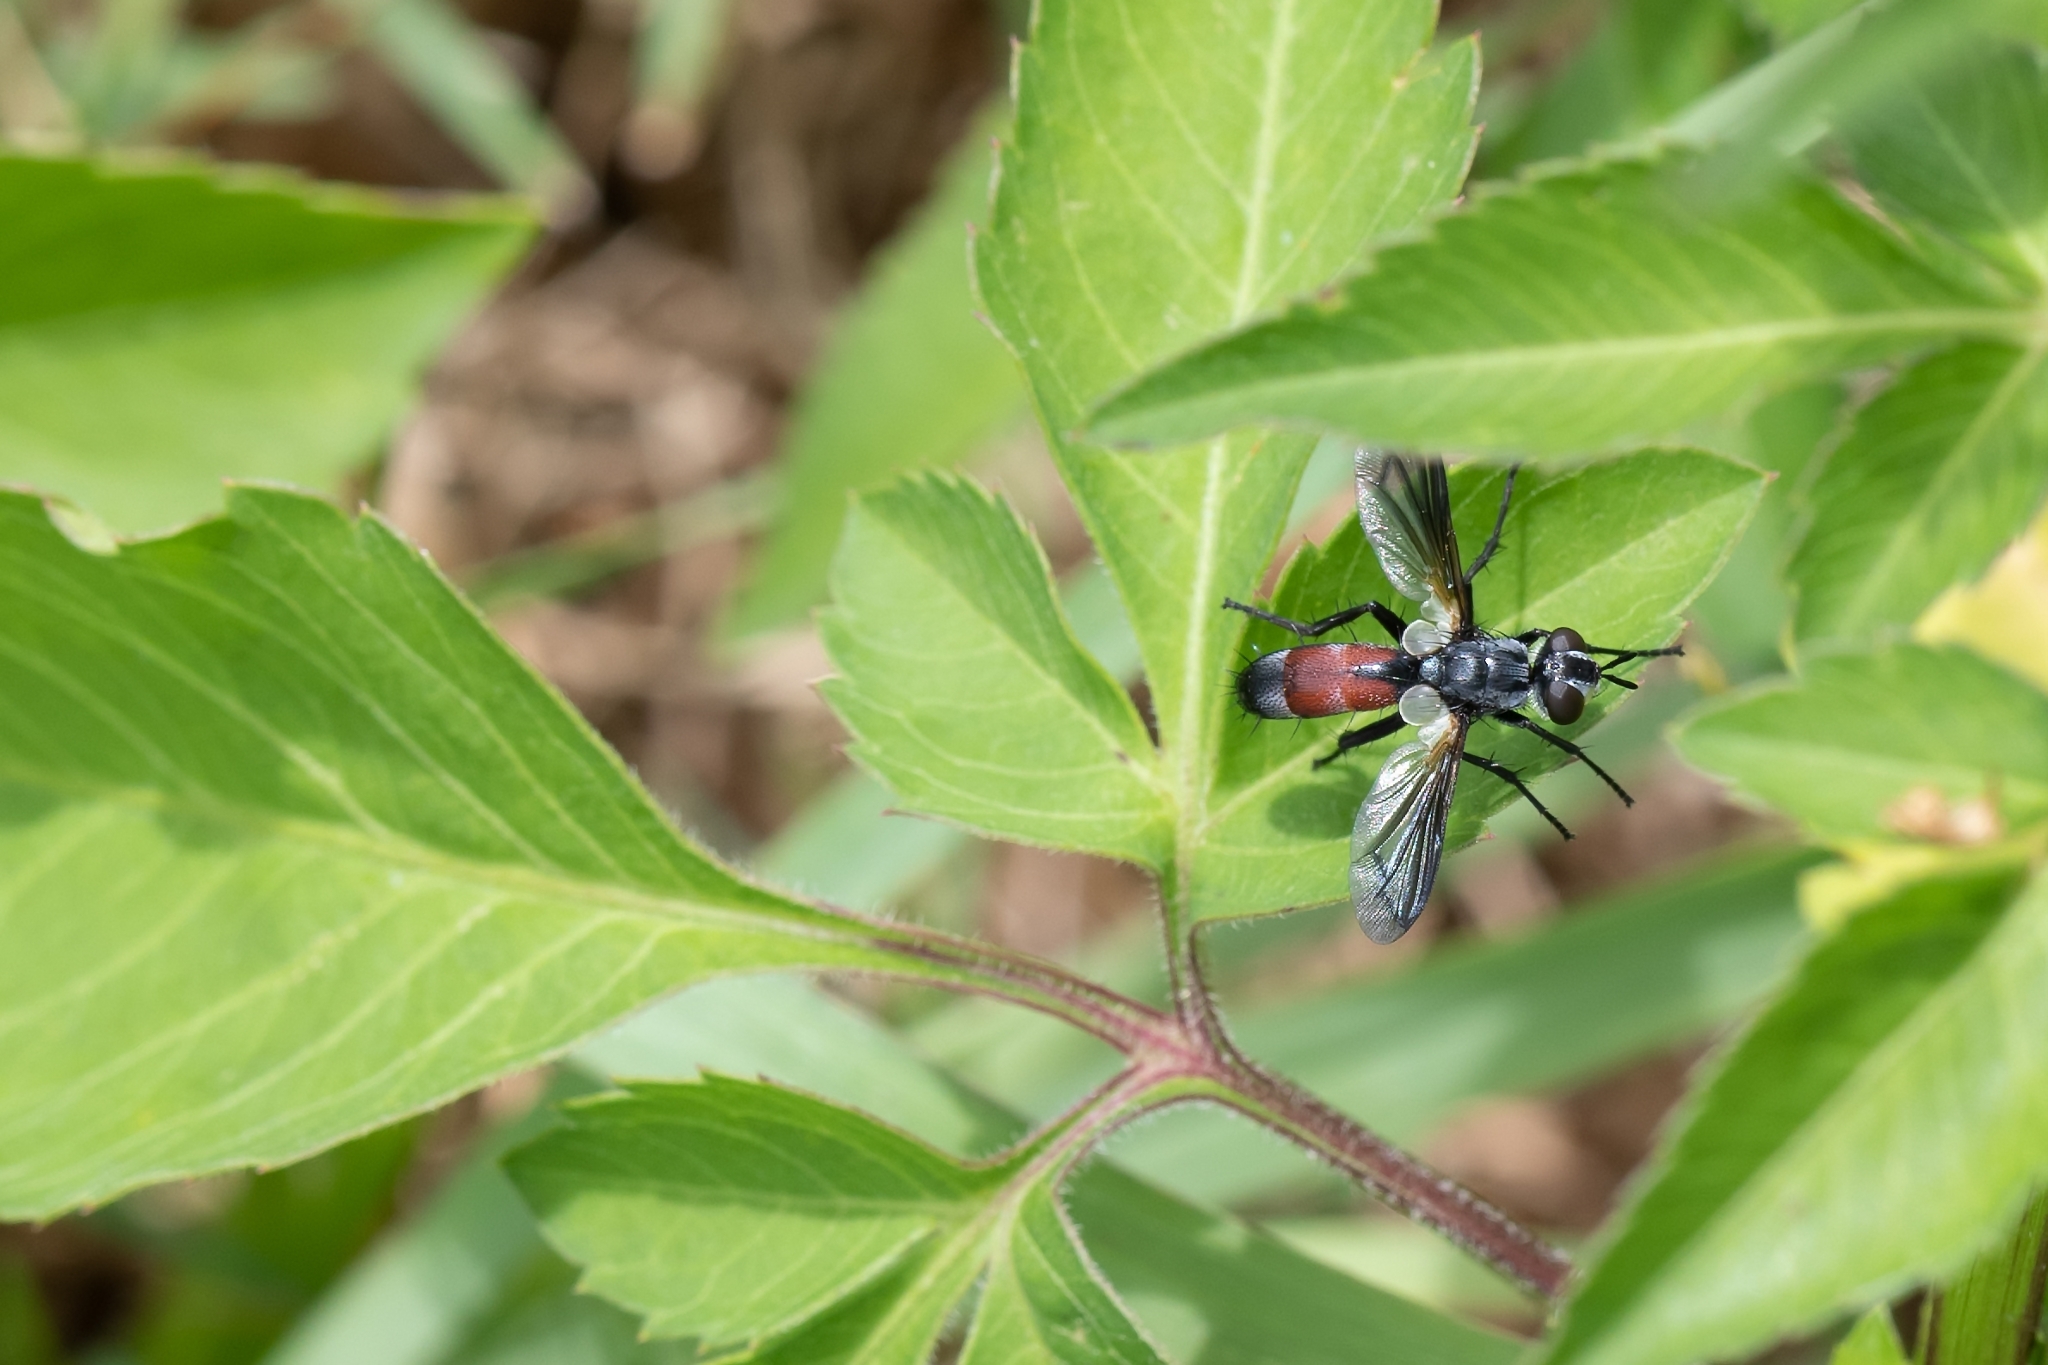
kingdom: Animalia
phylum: Arthropoda
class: Insecta
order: Diptera
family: Tachinidae
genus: Cylindromyia
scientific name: Cylindromyia
